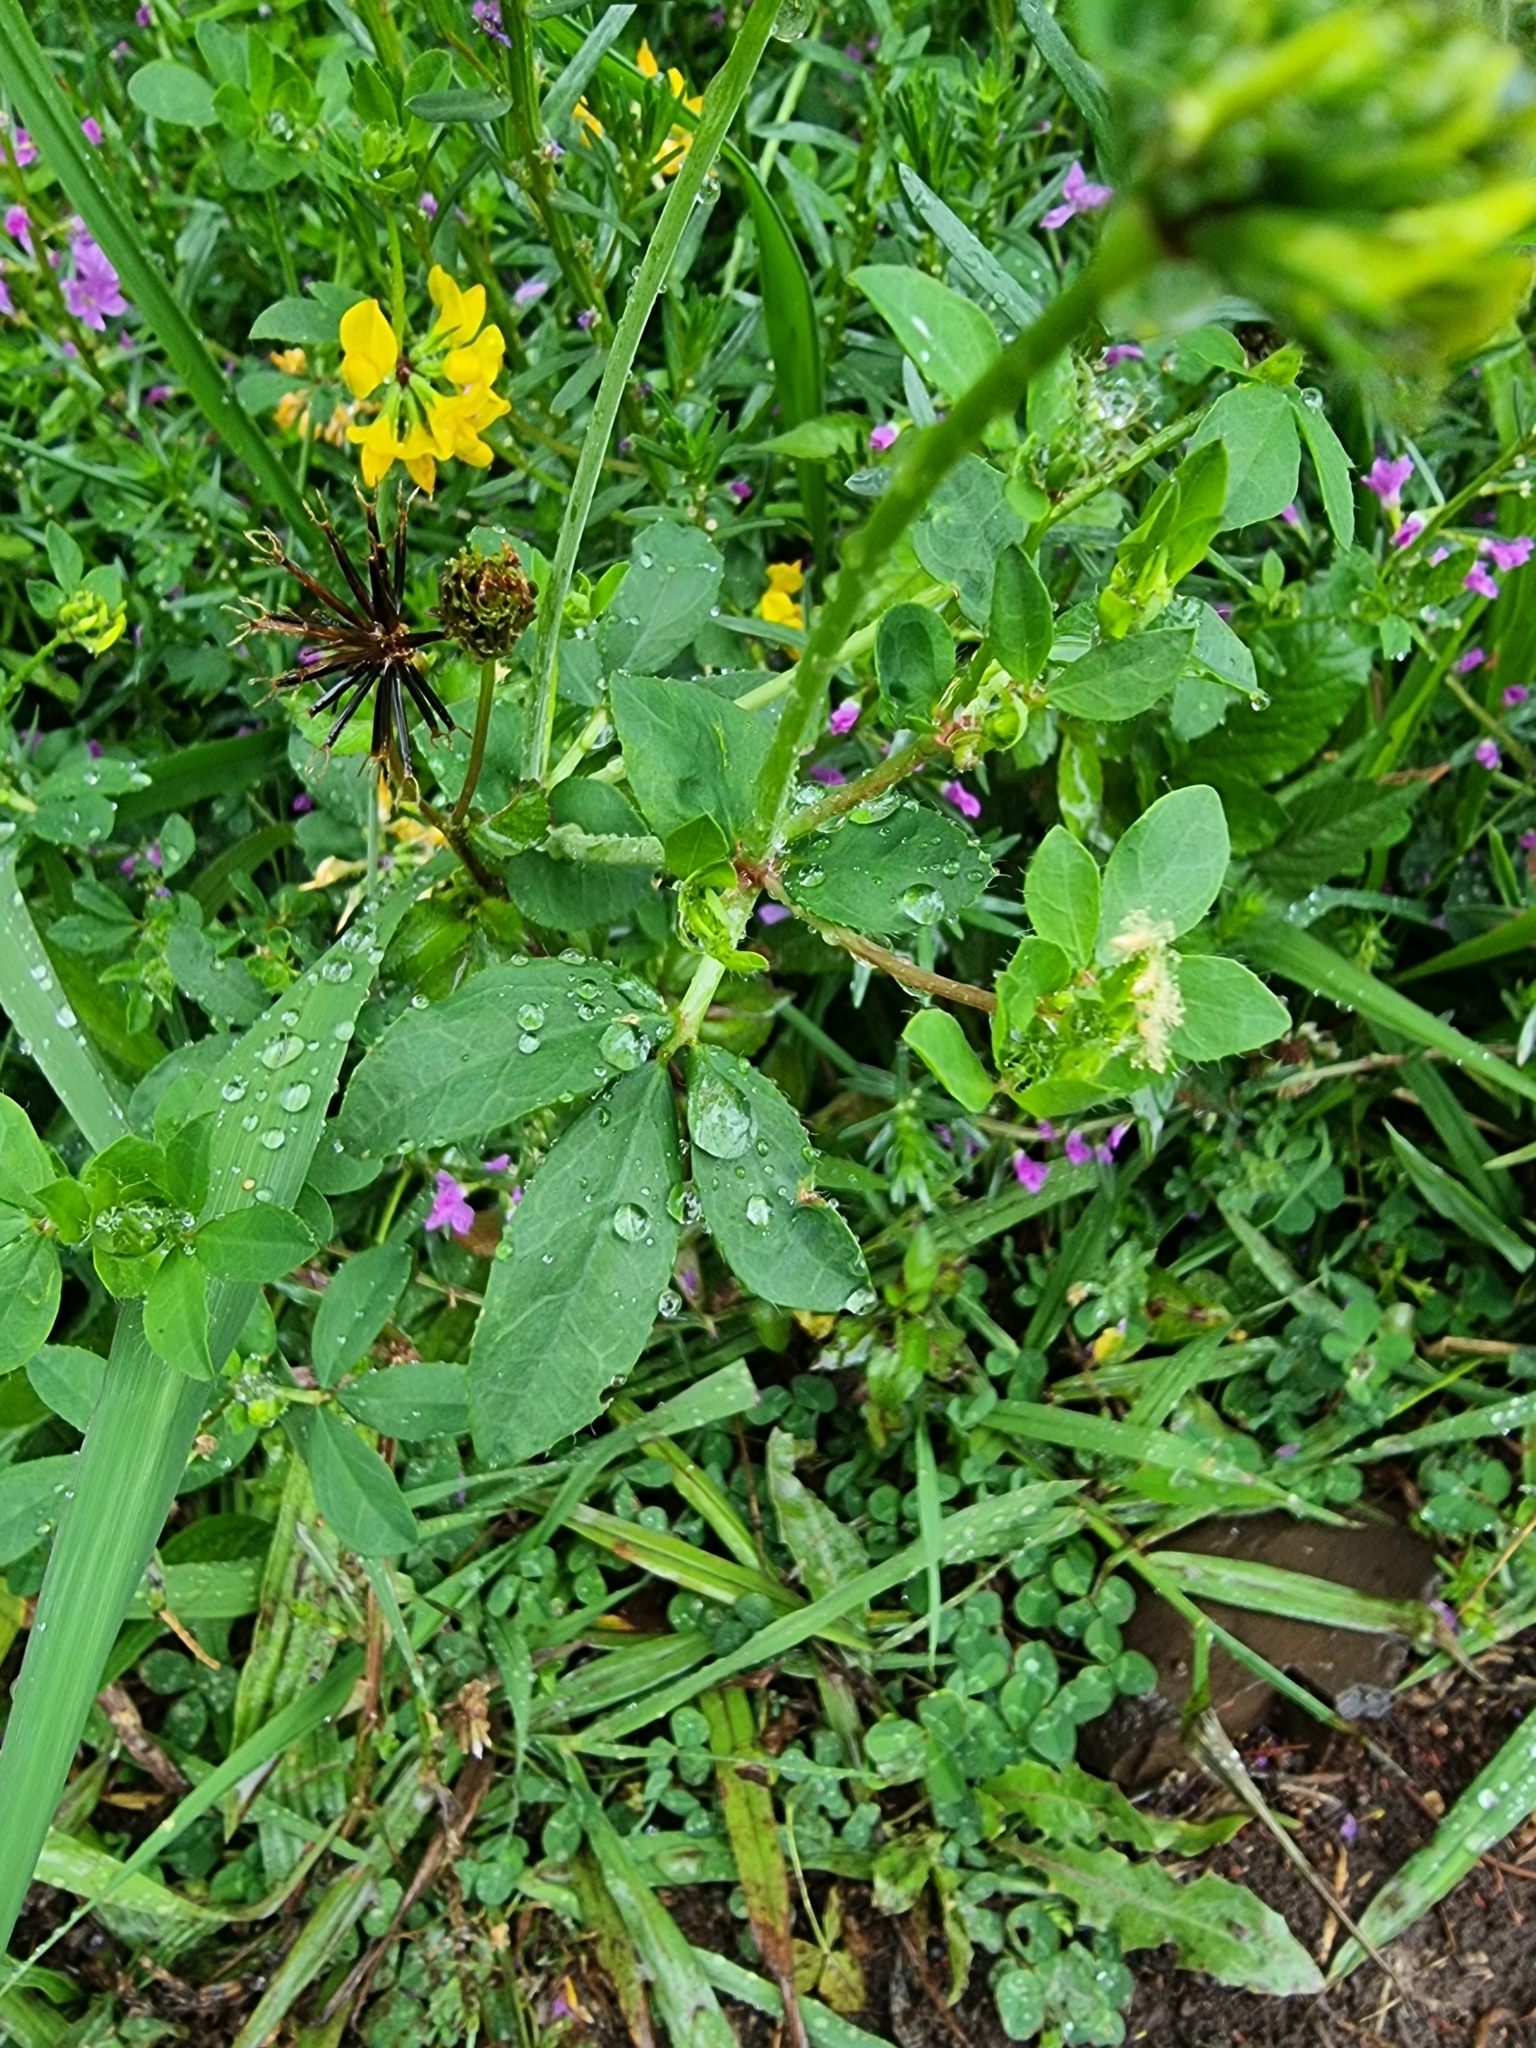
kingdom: Plantae
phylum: Tracheophyta
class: Magnoliopsida
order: Fabales
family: Fabaceae
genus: Lotus
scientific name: Lotus pedunculatus
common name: Greater birdsfoot-trefoil
